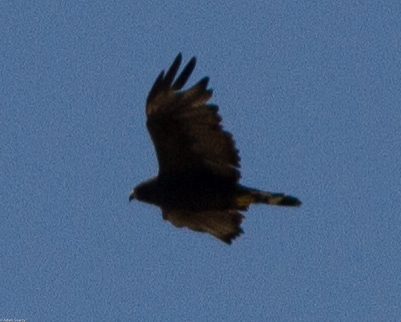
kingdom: Animalia
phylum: Chordata
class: Aves
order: Accipitriformes
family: Accipitridae
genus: Buteo
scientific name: Buteo albonotatus
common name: Zone-tailed hawk
